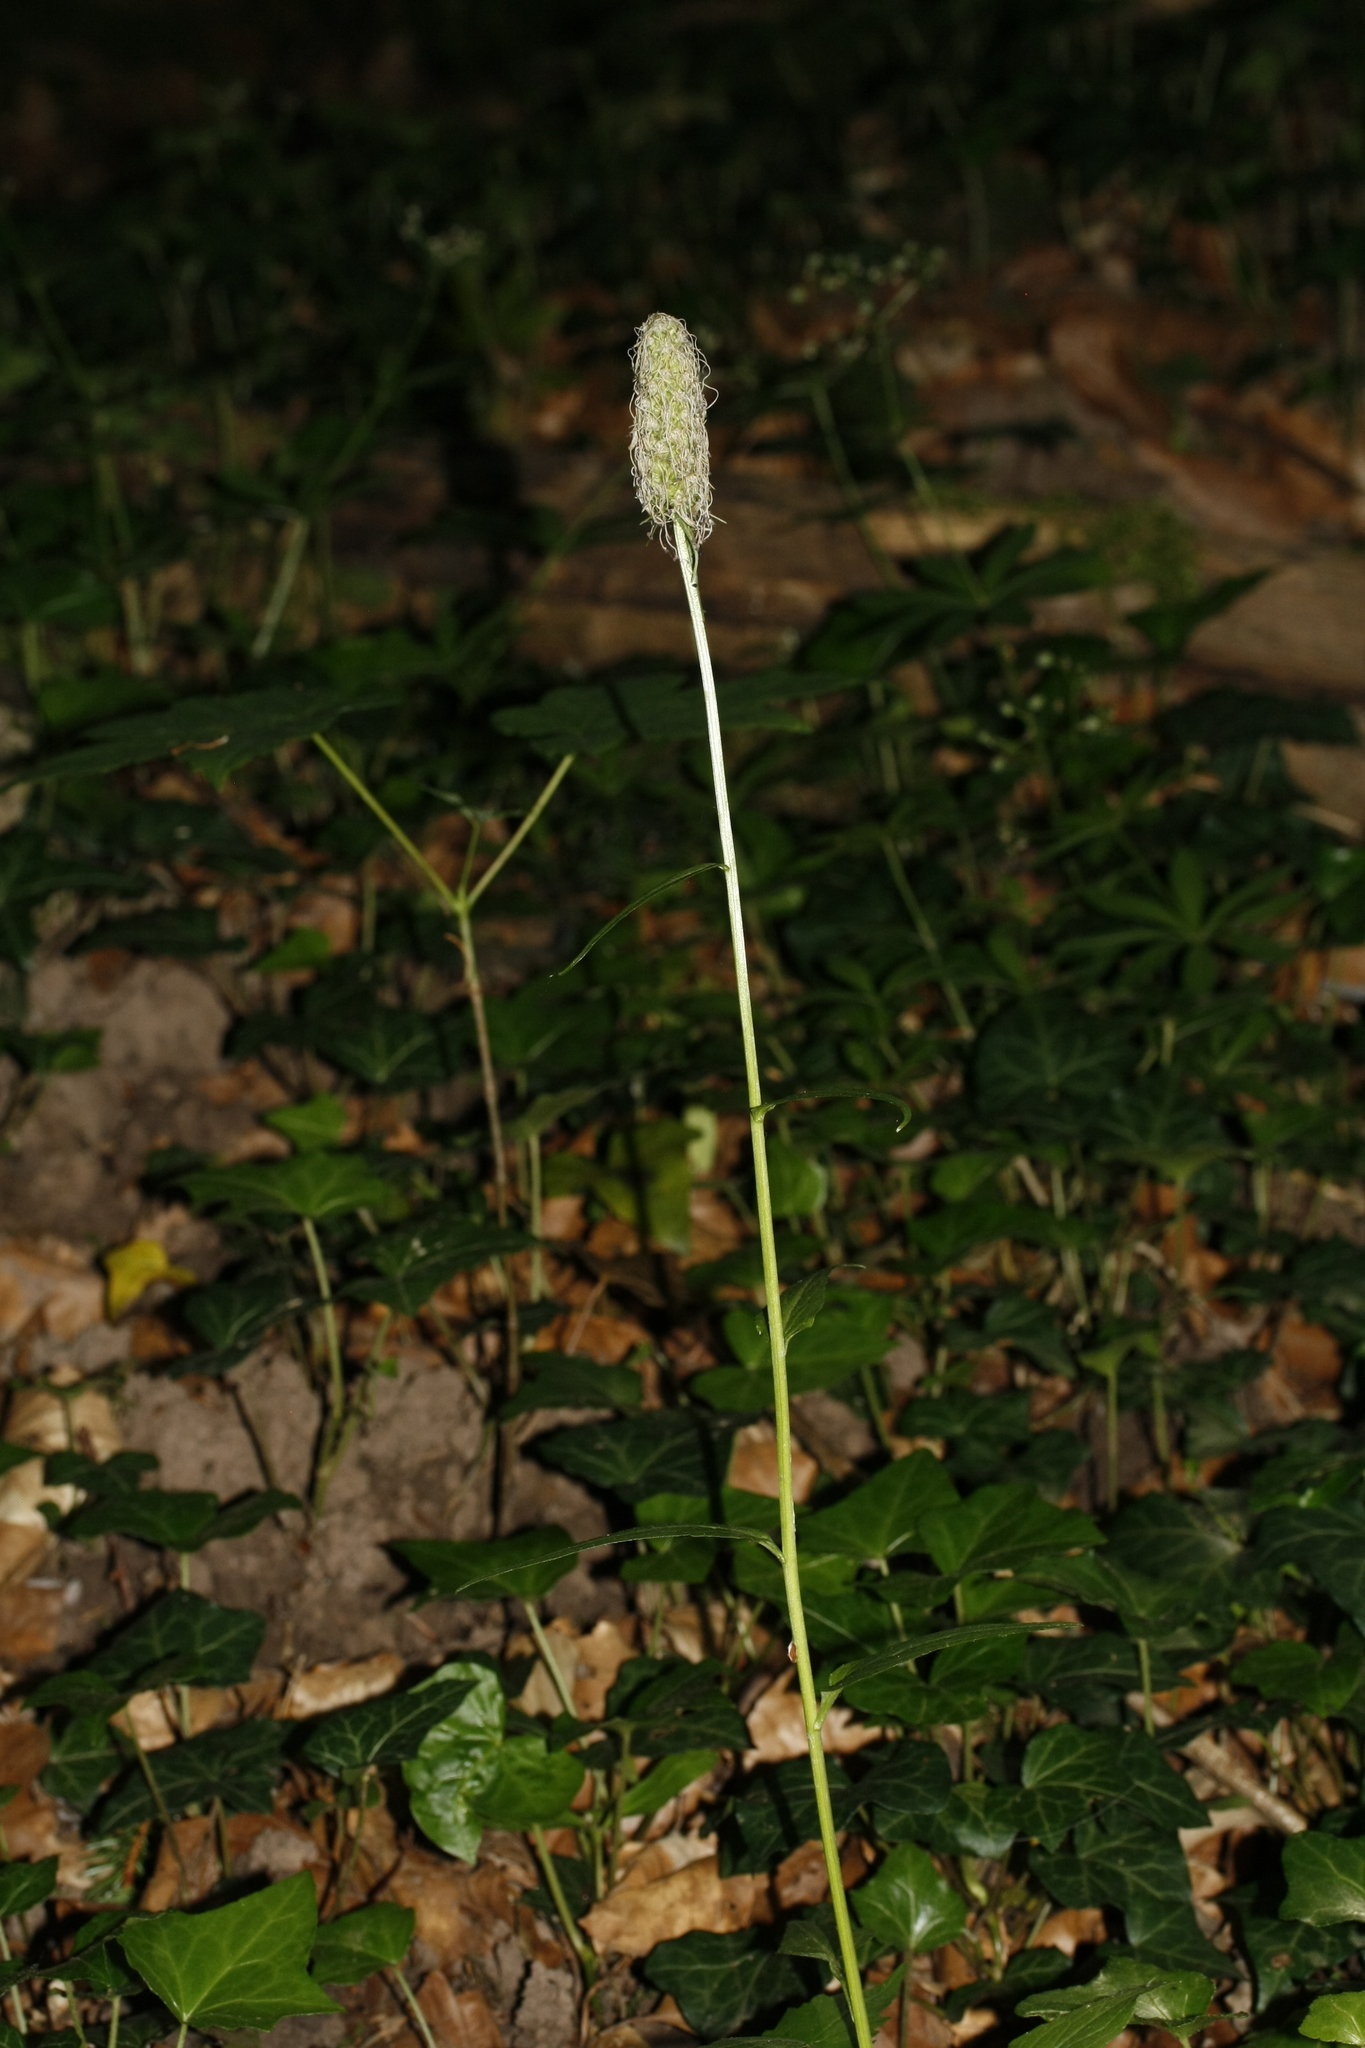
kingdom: Plantae
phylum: Tracheophyta
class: Magnoliopsida
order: Asterales
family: Campanulaceae
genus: Phyteuma
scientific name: Phyteuma
